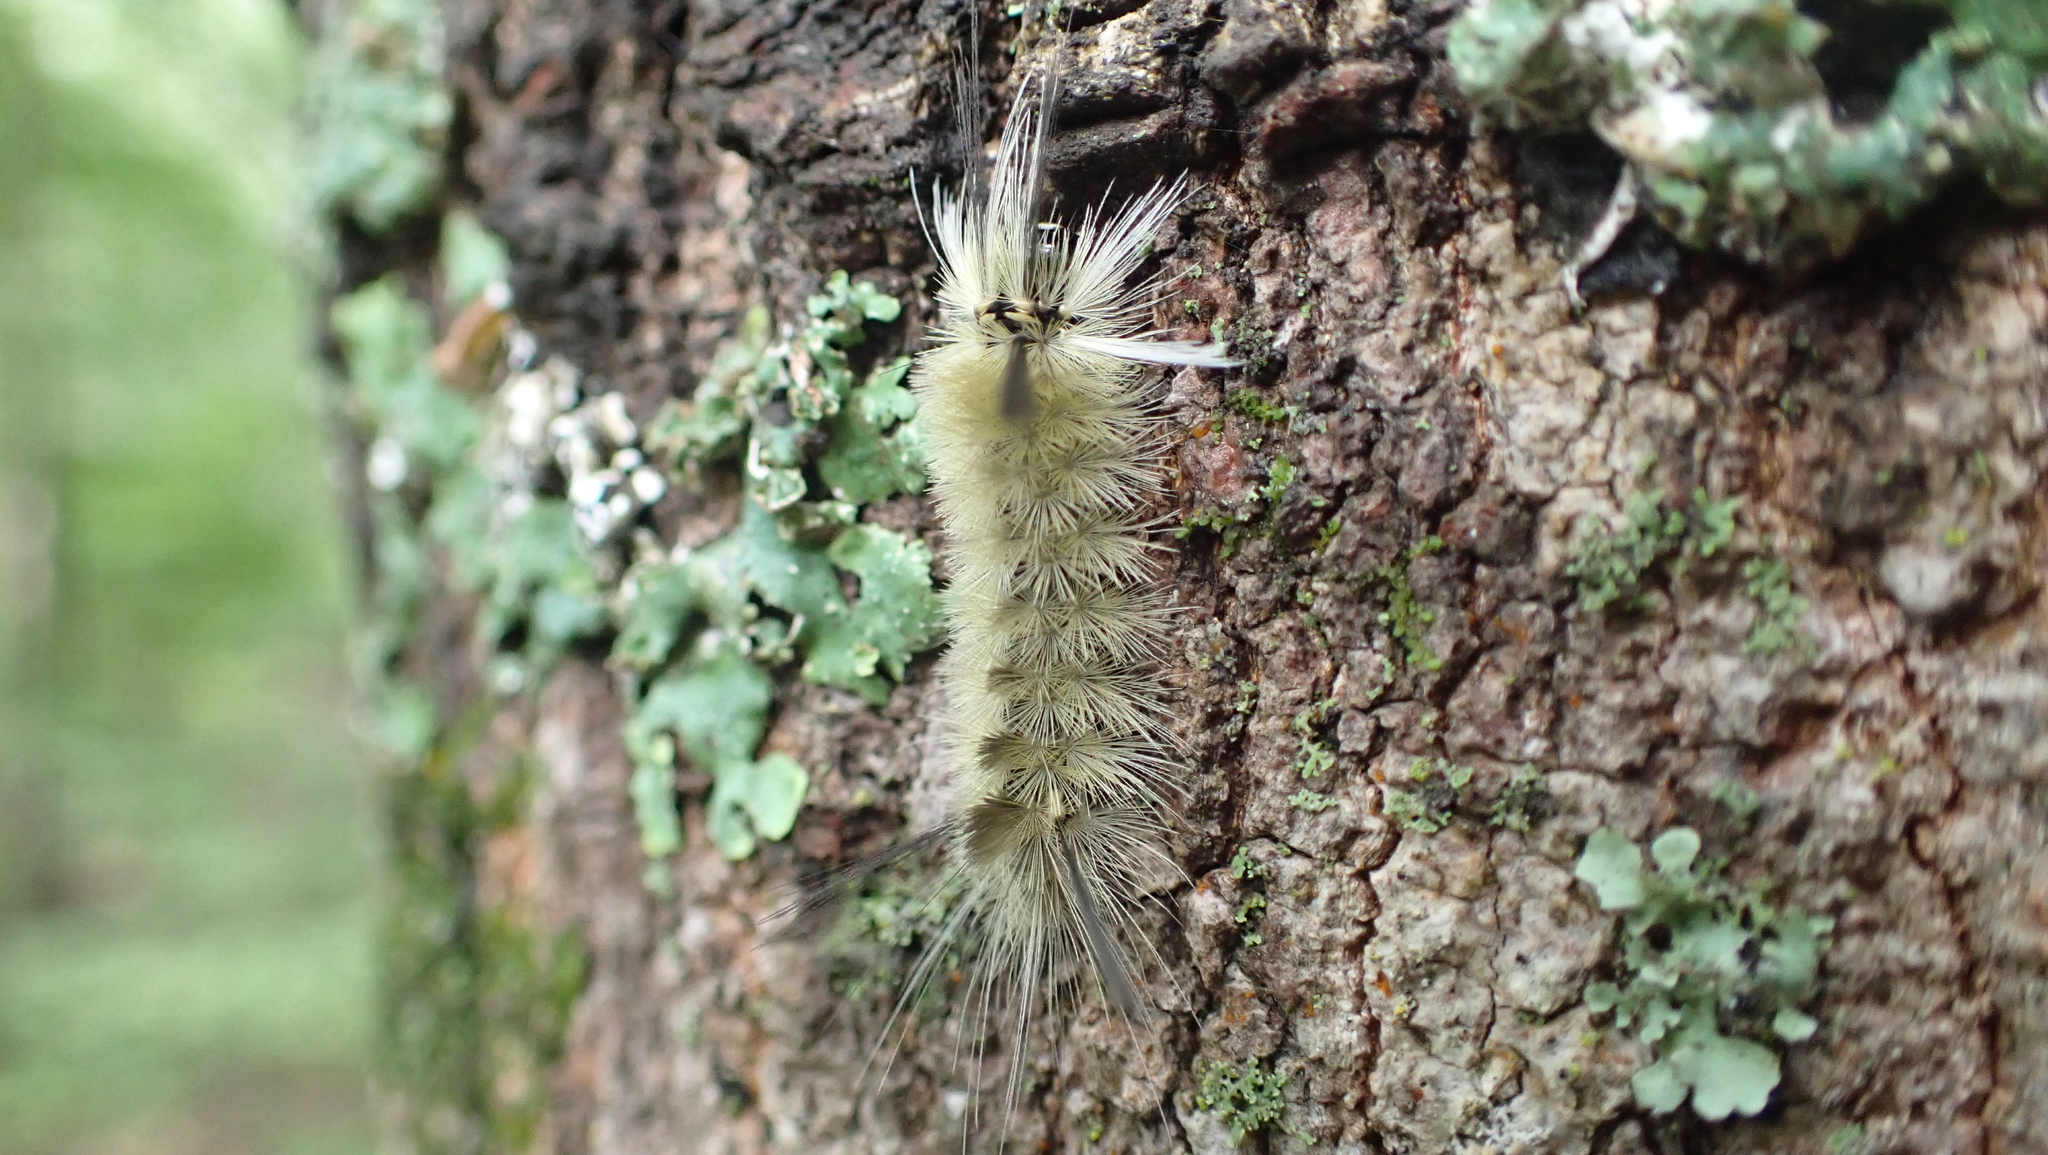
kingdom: Animalia
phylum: Arthropoda
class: Insecta
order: Lepidoptera
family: Erebidae
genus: Halysidota
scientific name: Halysidota tessellaris
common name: Banded tussock moth
